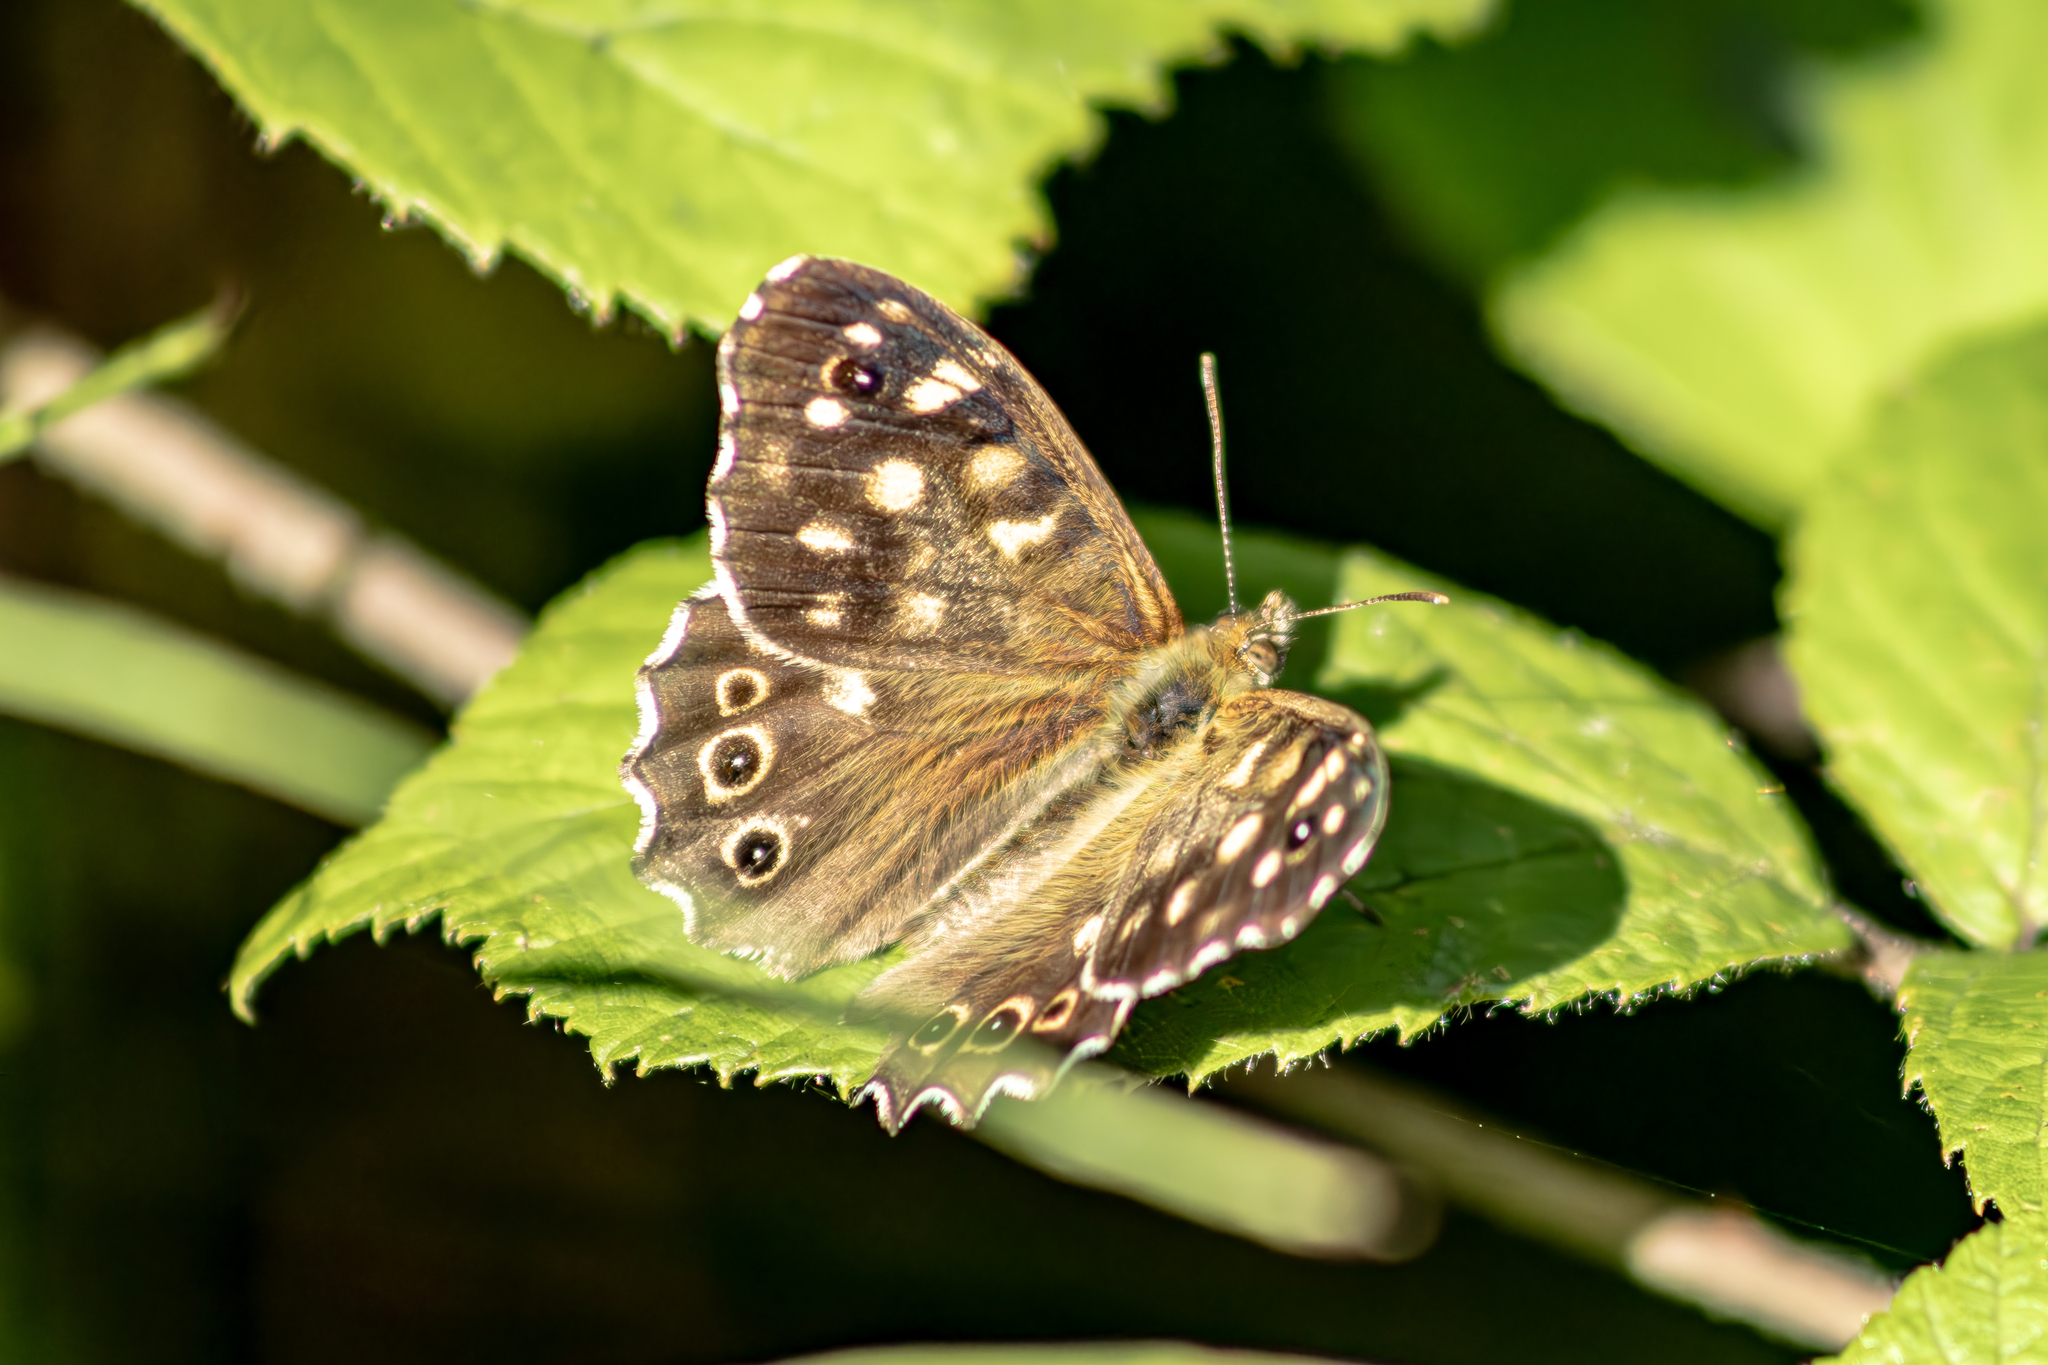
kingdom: Animalia
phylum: Arthropoda
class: Insecta
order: Lepidoptera
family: Nymphalidae
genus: Pararge
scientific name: Pararge aegeria
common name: Speckled wood
